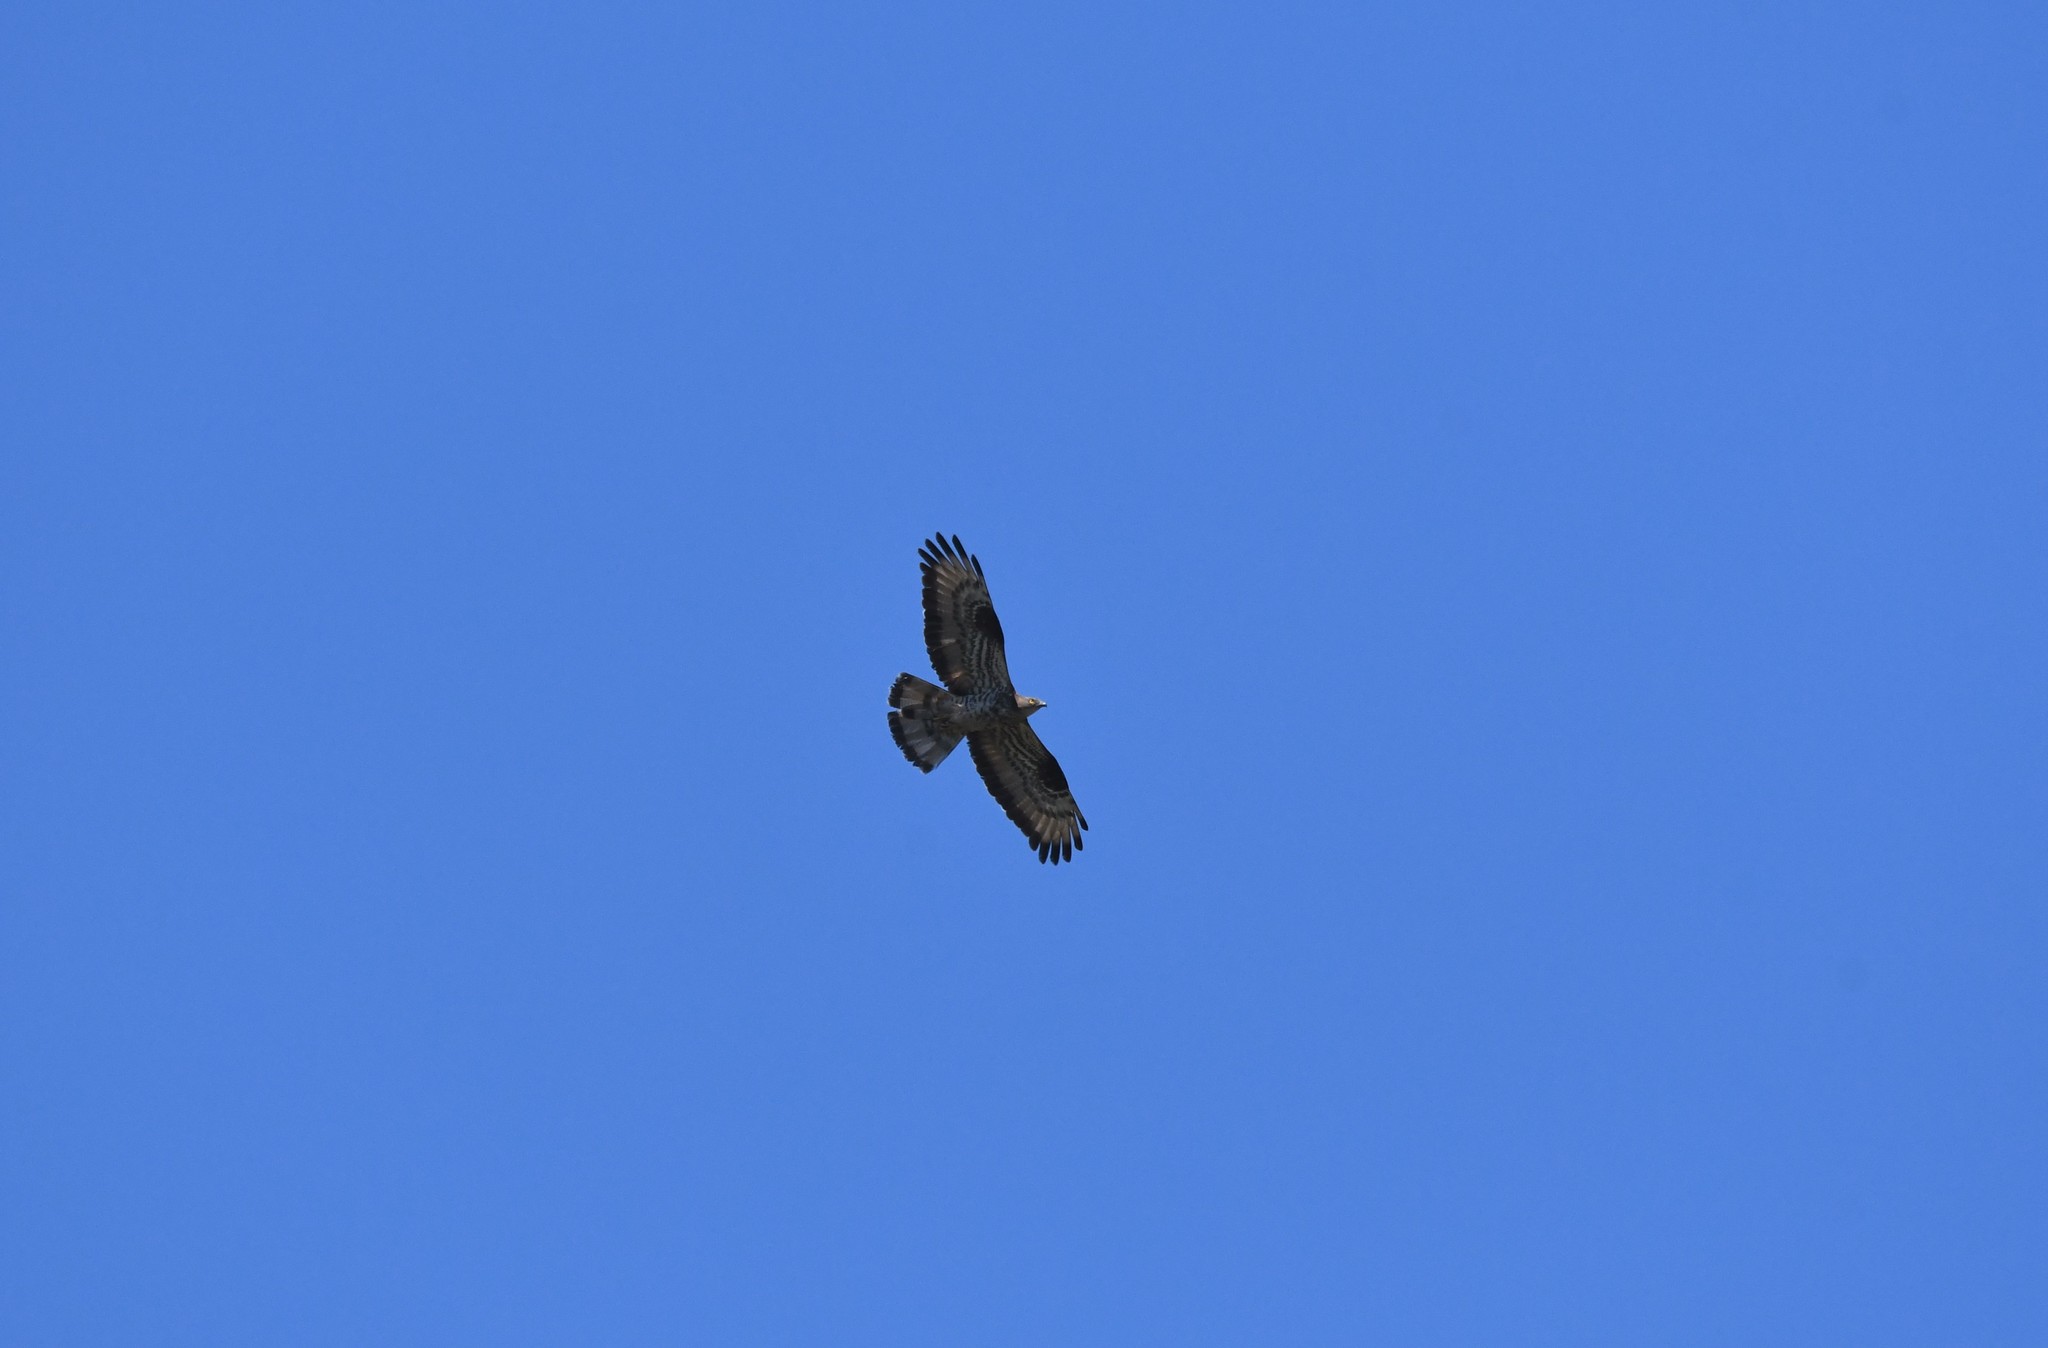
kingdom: Animalia
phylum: Chordata
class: Aves
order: Accipitriformes
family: Accipitridae
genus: Pernis
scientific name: Pernis apivorus
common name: European honey buzzard
